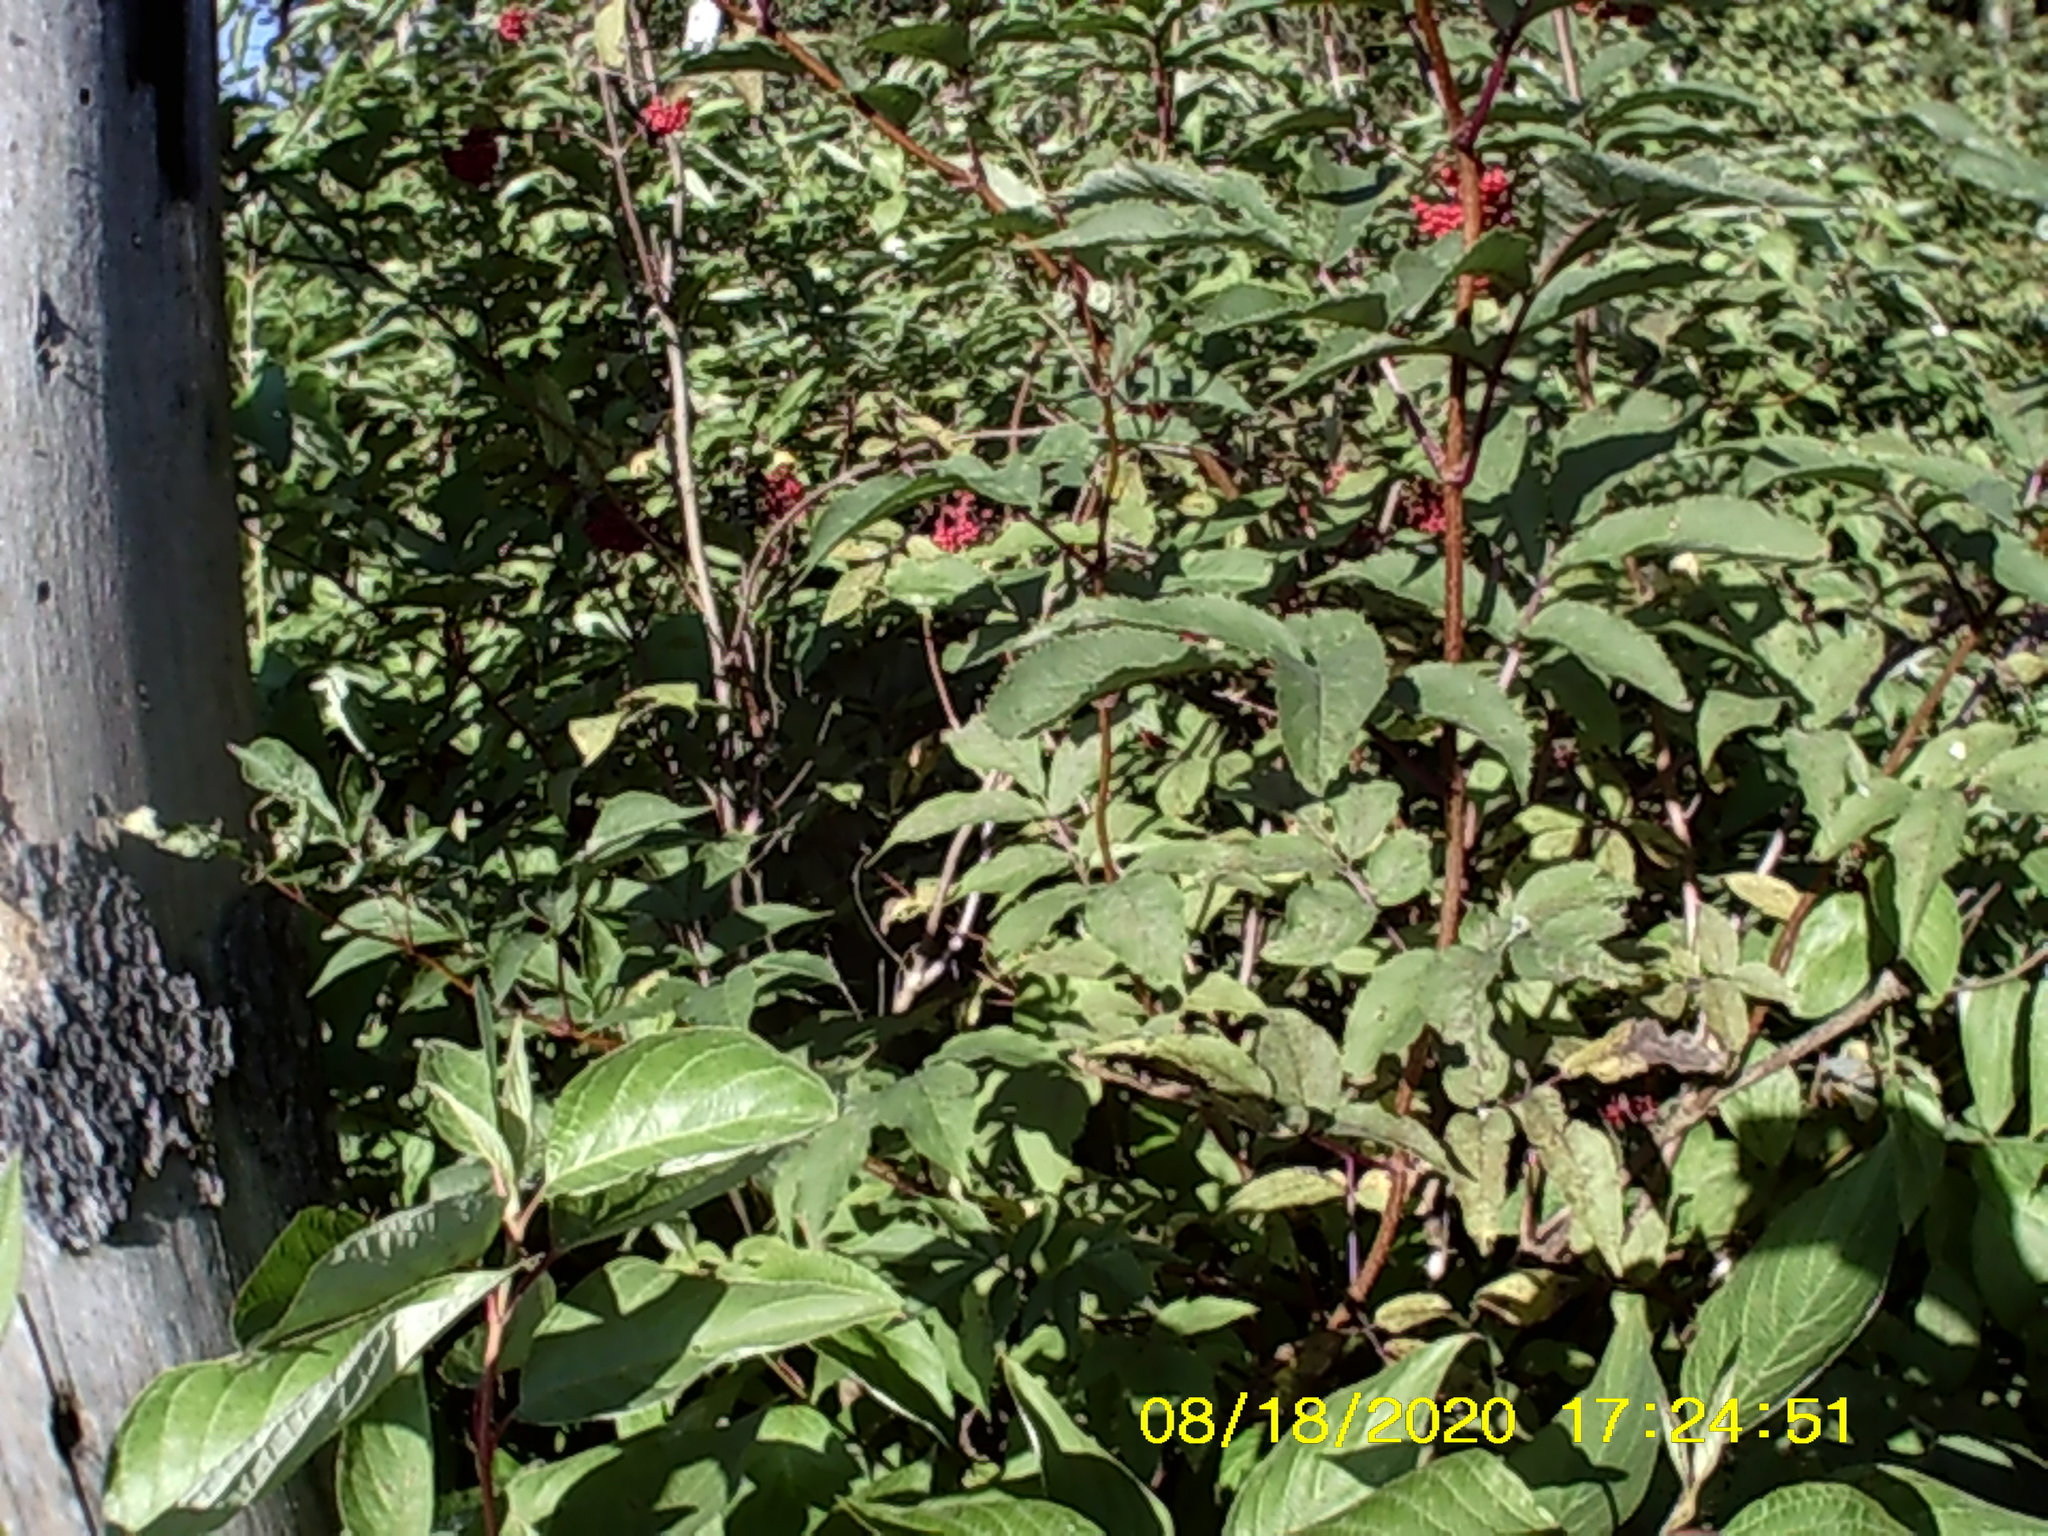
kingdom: Plantae
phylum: Tracheophyta
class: Magnoliopsida
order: Dipsacales
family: Viburnaceae
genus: Sambucus
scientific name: Sambucus racemosa
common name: Red-berried elder
